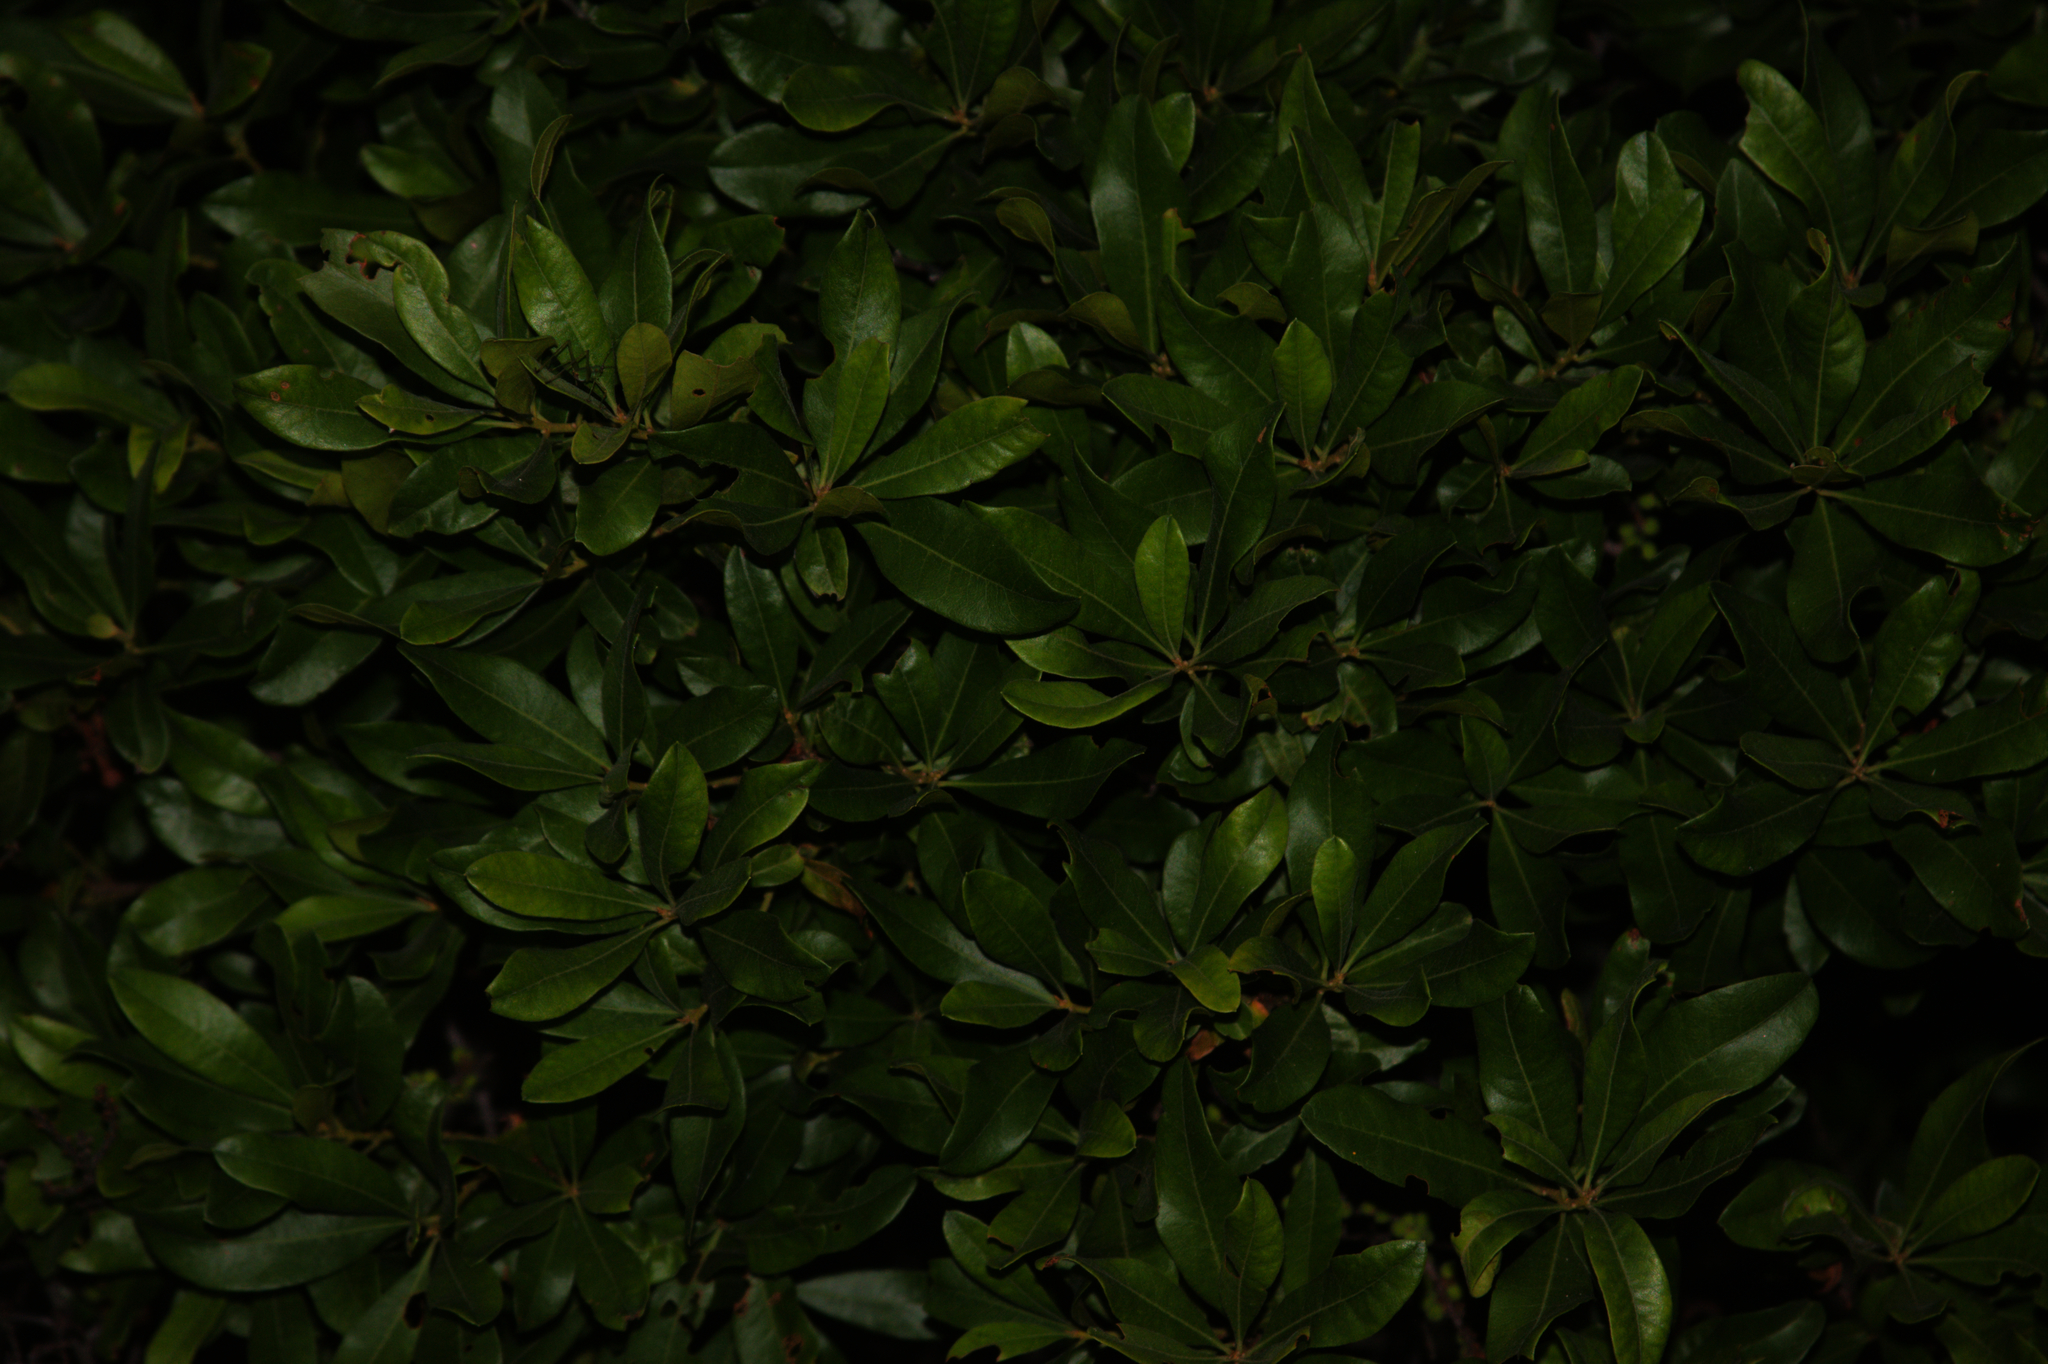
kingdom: Plantae
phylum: Tracheophyta
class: Magnoliopsida
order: Fagales
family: Myricaceae
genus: Morella
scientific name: Morella pensylvanica
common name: Northern bayberry
